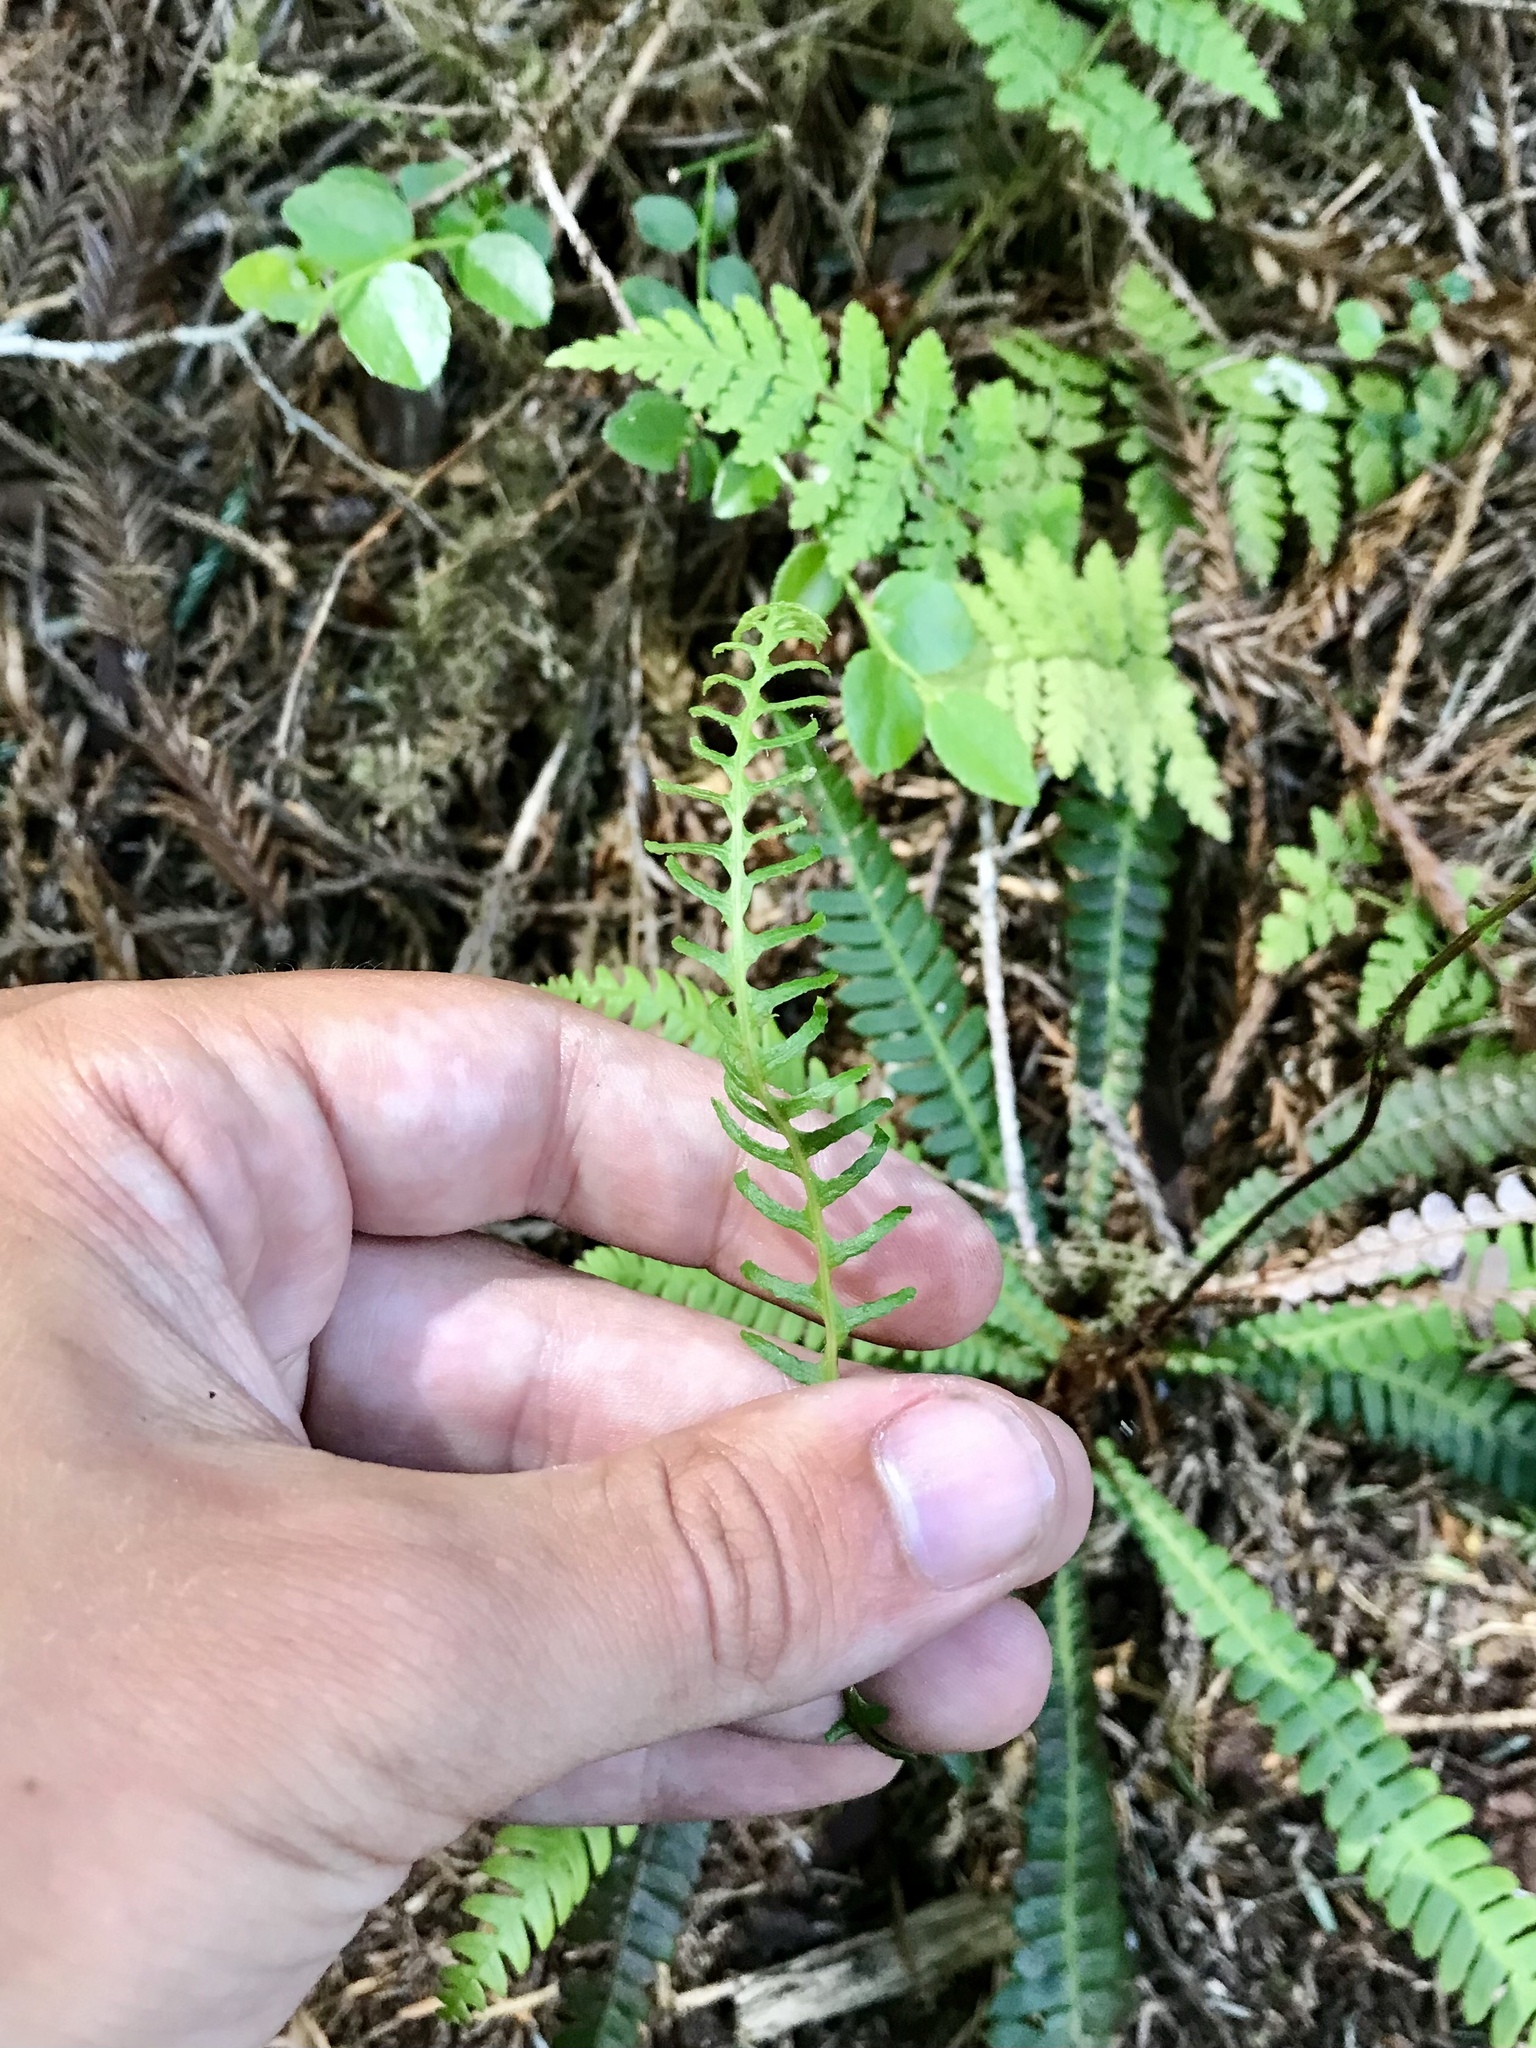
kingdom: Plantae
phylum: Tracheophyta
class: Polypodiopsida
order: Polypodiales
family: Blechnaceae
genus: Struthiopteris
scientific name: Struthiopteris spicant
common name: Deer fern
